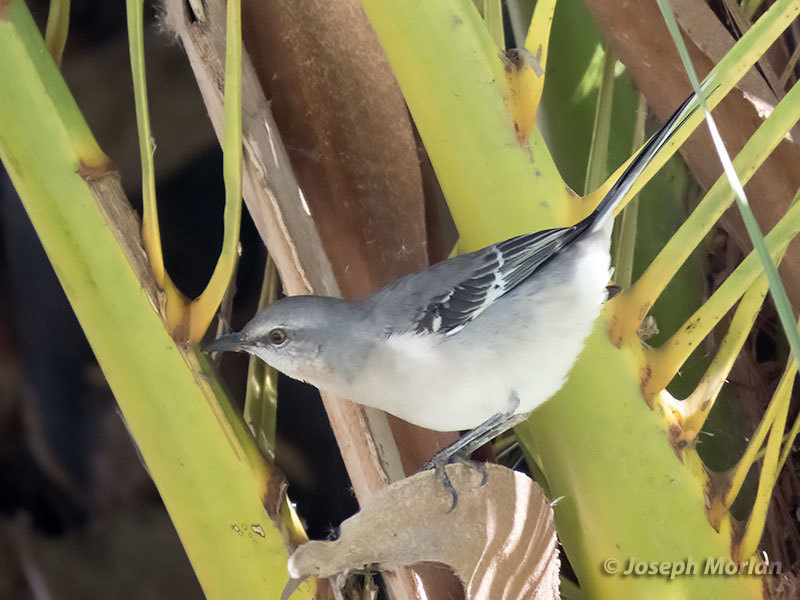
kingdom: Animalia
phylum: Chordata
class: Aves
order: Passeriformes
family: Mimidae
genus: Mimus
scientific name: Mimus polyglottos
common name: Northern mockingbird
